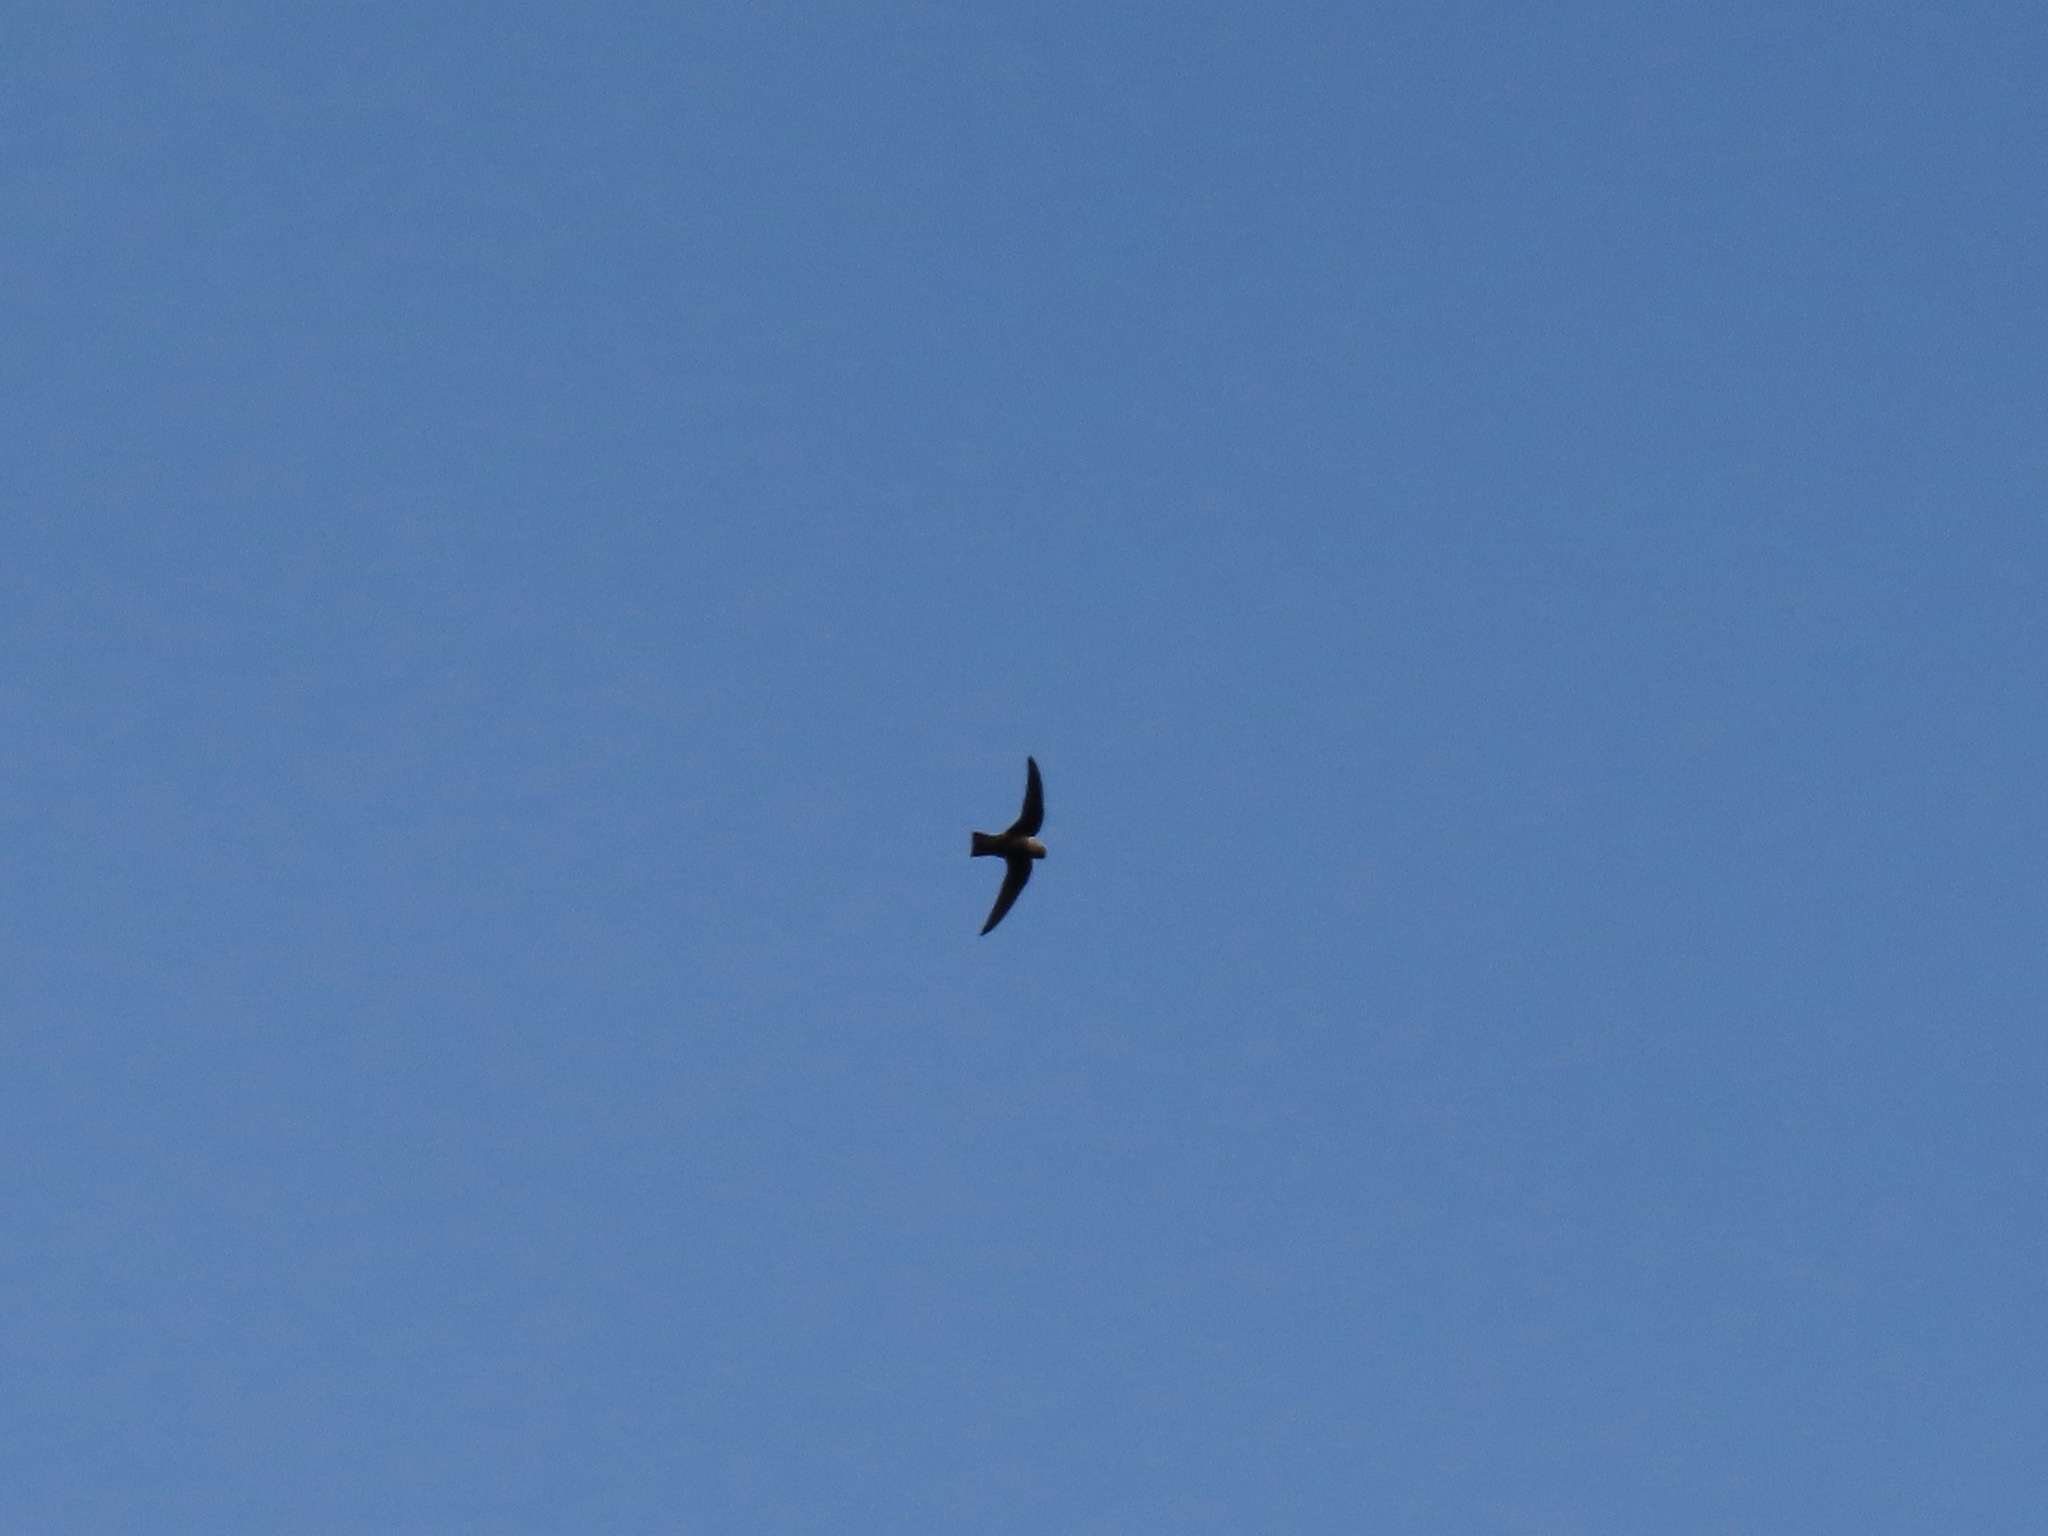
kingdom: Animalia
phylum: Chordata
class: Aves
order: Apodiformes
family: Apodidae
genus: Chaetura
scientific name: Chaetura vauxi
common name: Vaux's swift
